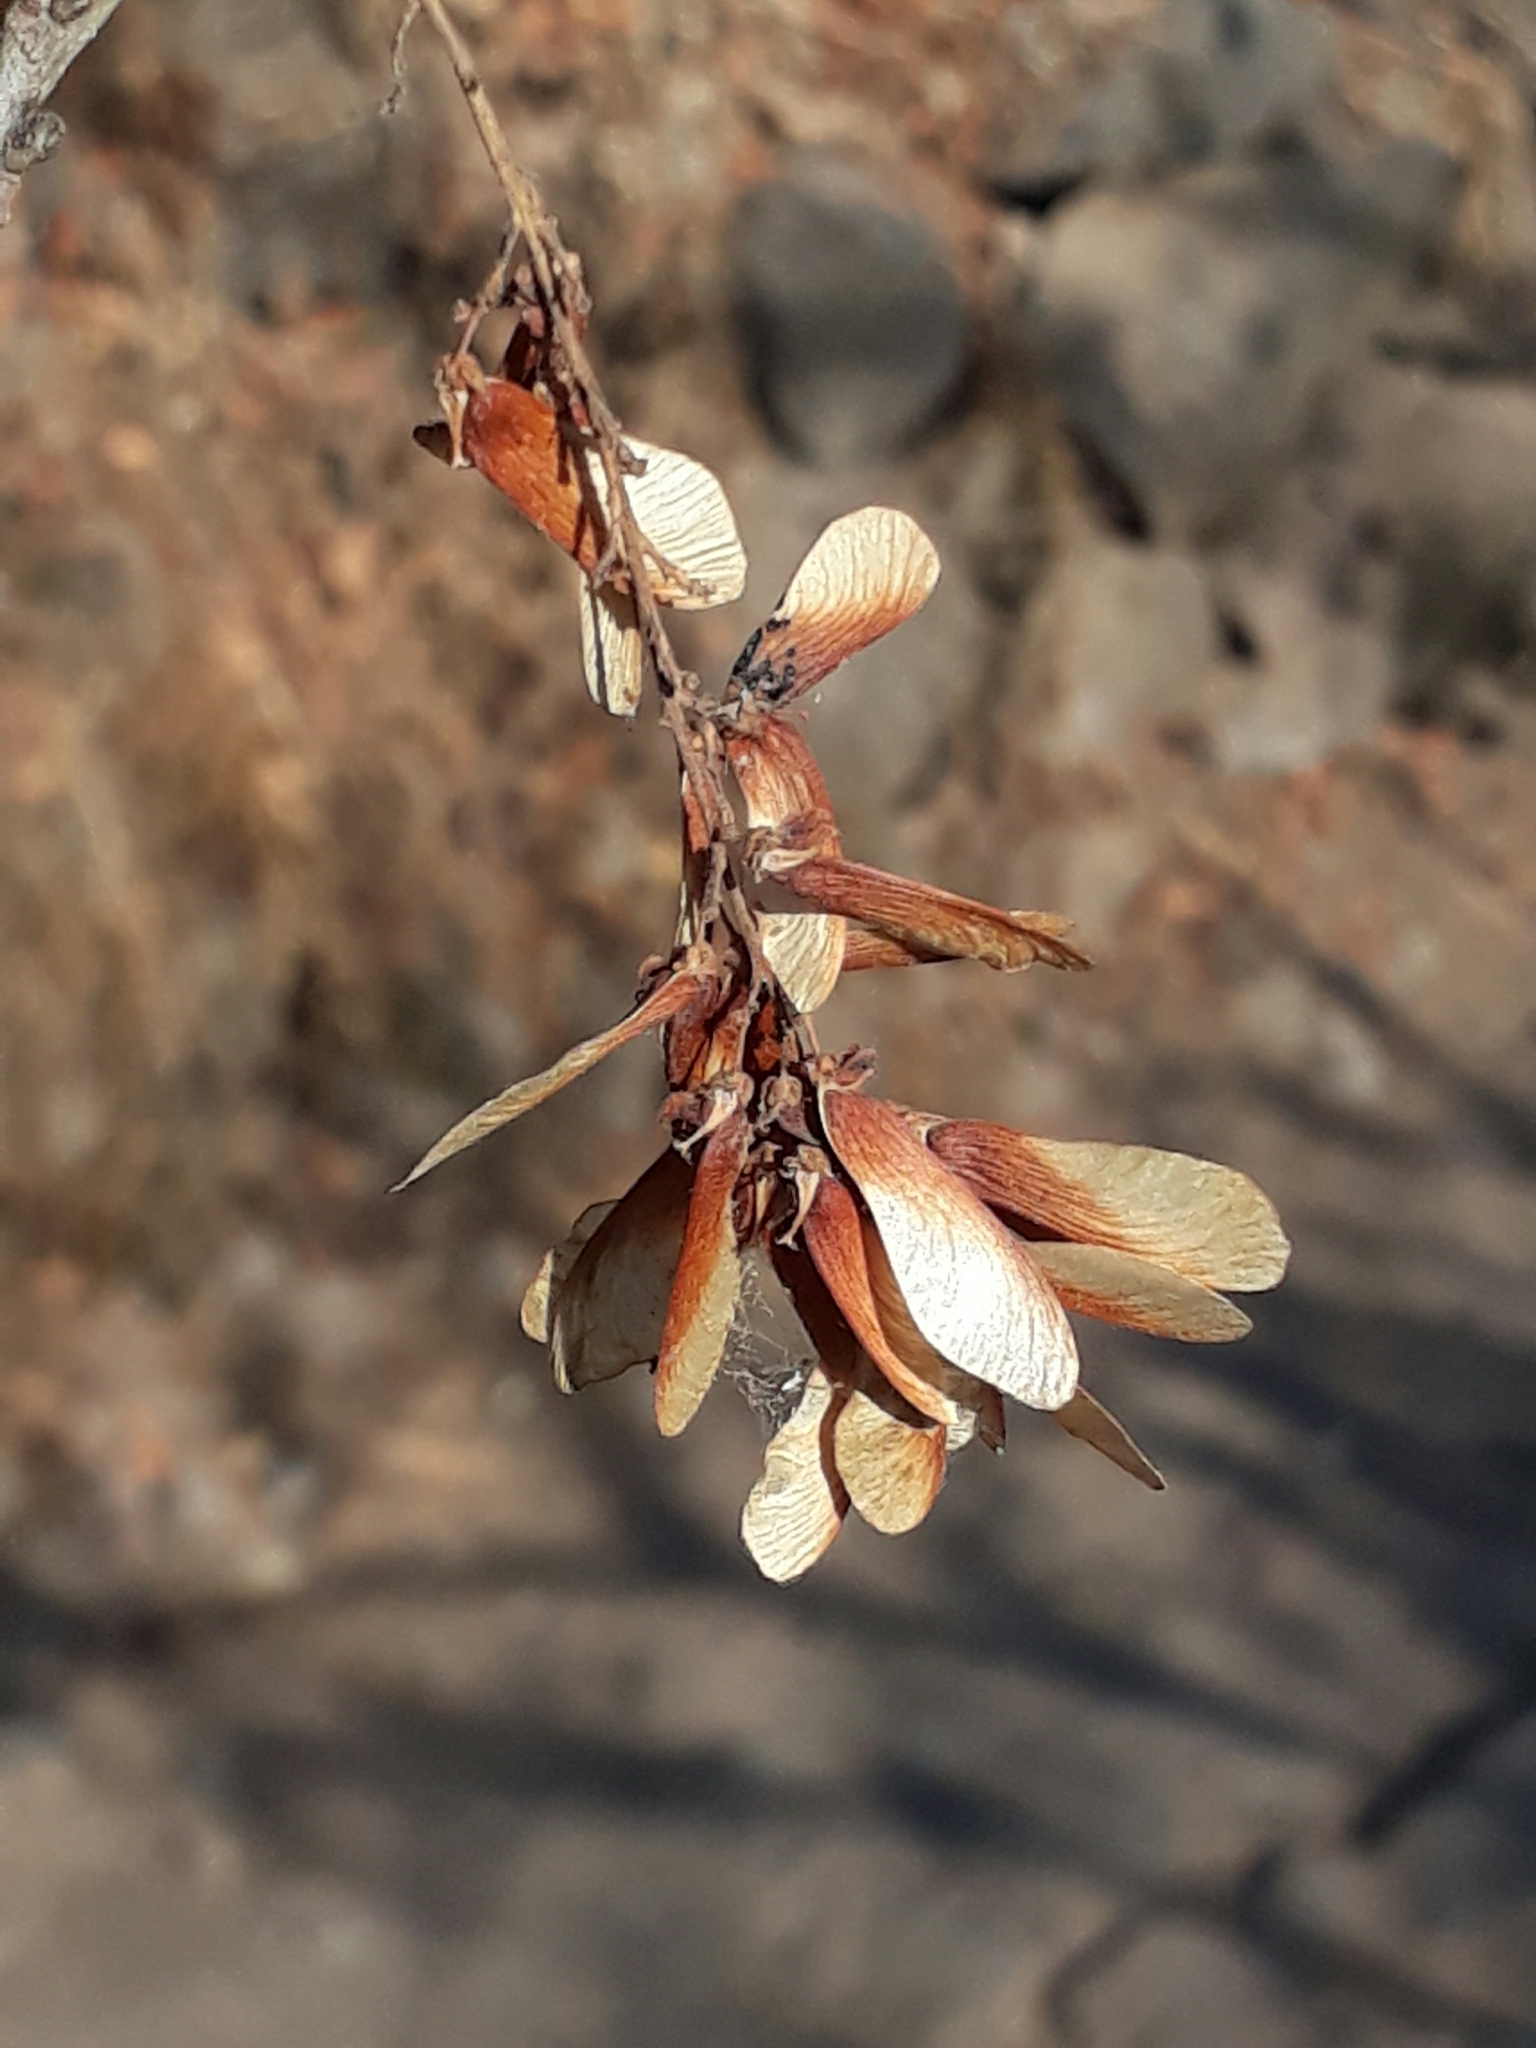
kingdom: Plantae
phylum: Tracheophyta
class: Magnoliopsida
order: Sapindales
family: Sapindaceae
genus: Thouinia
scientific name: Thouinia serrata
